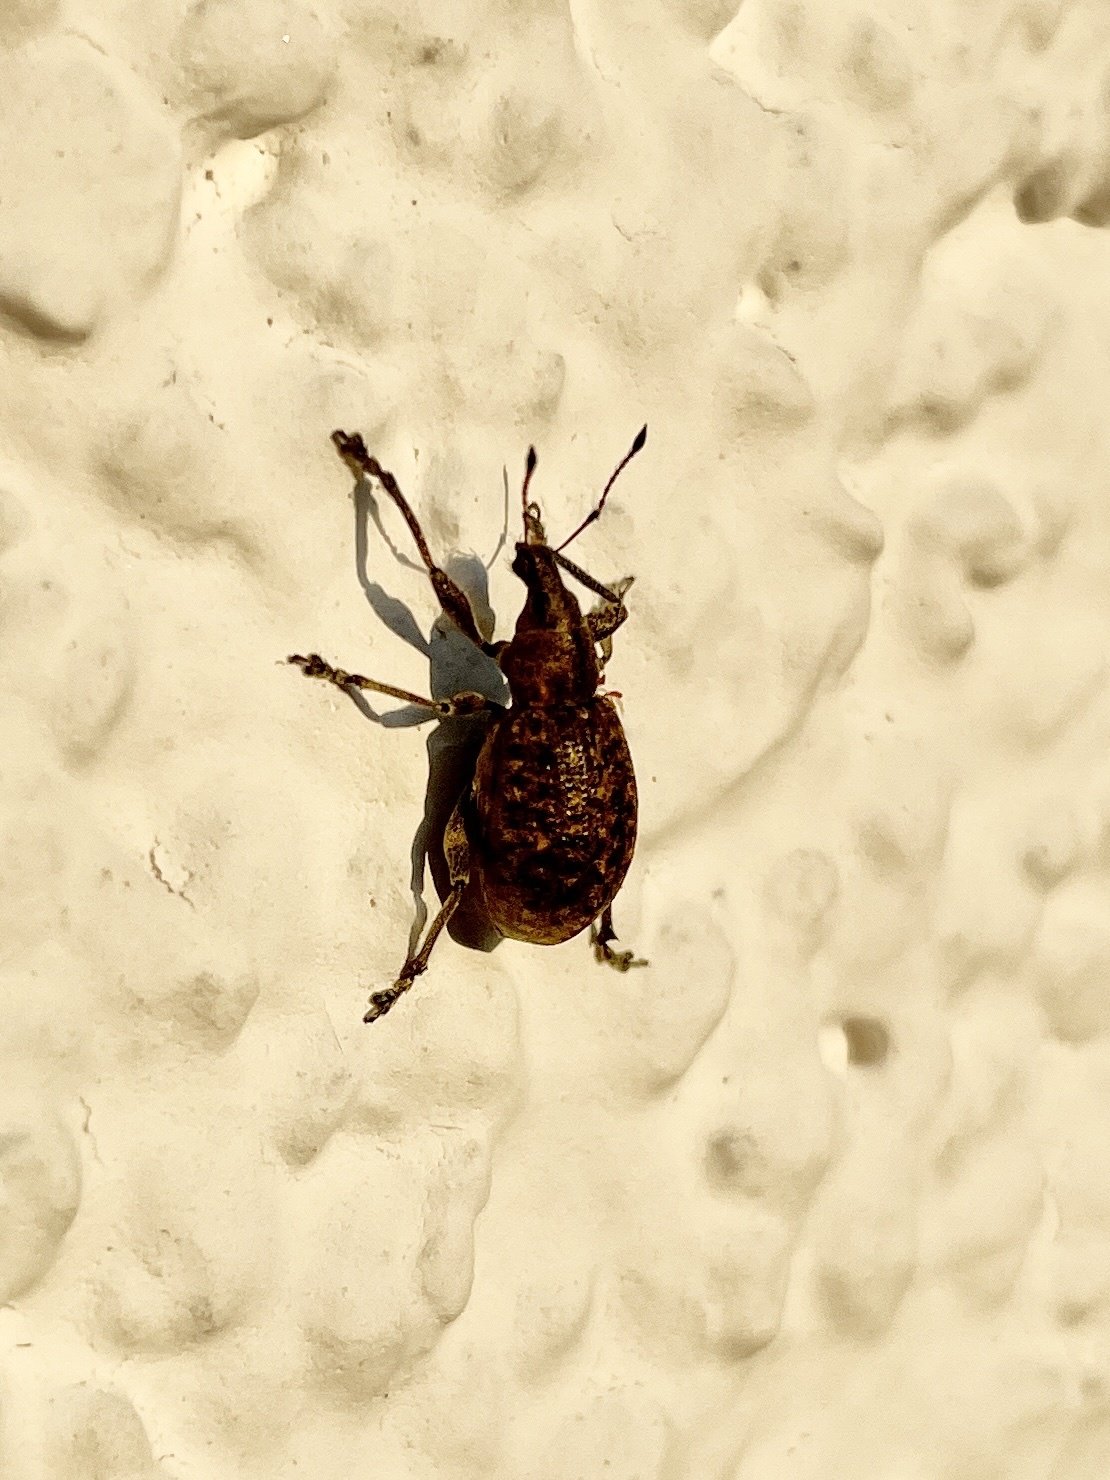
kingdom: Animalia
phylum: Arthropoda
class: Insecta
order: Coleoptera
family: Curculionidae
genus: Liophloeus
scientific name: Liophloeus tessulatus
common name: Weevil
